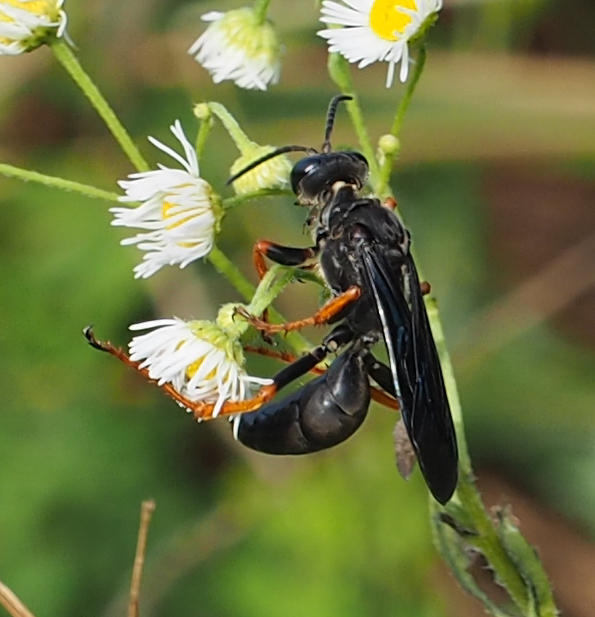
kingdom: Animalia
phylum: Arthropoda
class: Insecta
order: Hymenoptera
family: Sphecidae
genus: Sphex
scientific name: Sphex nudus
